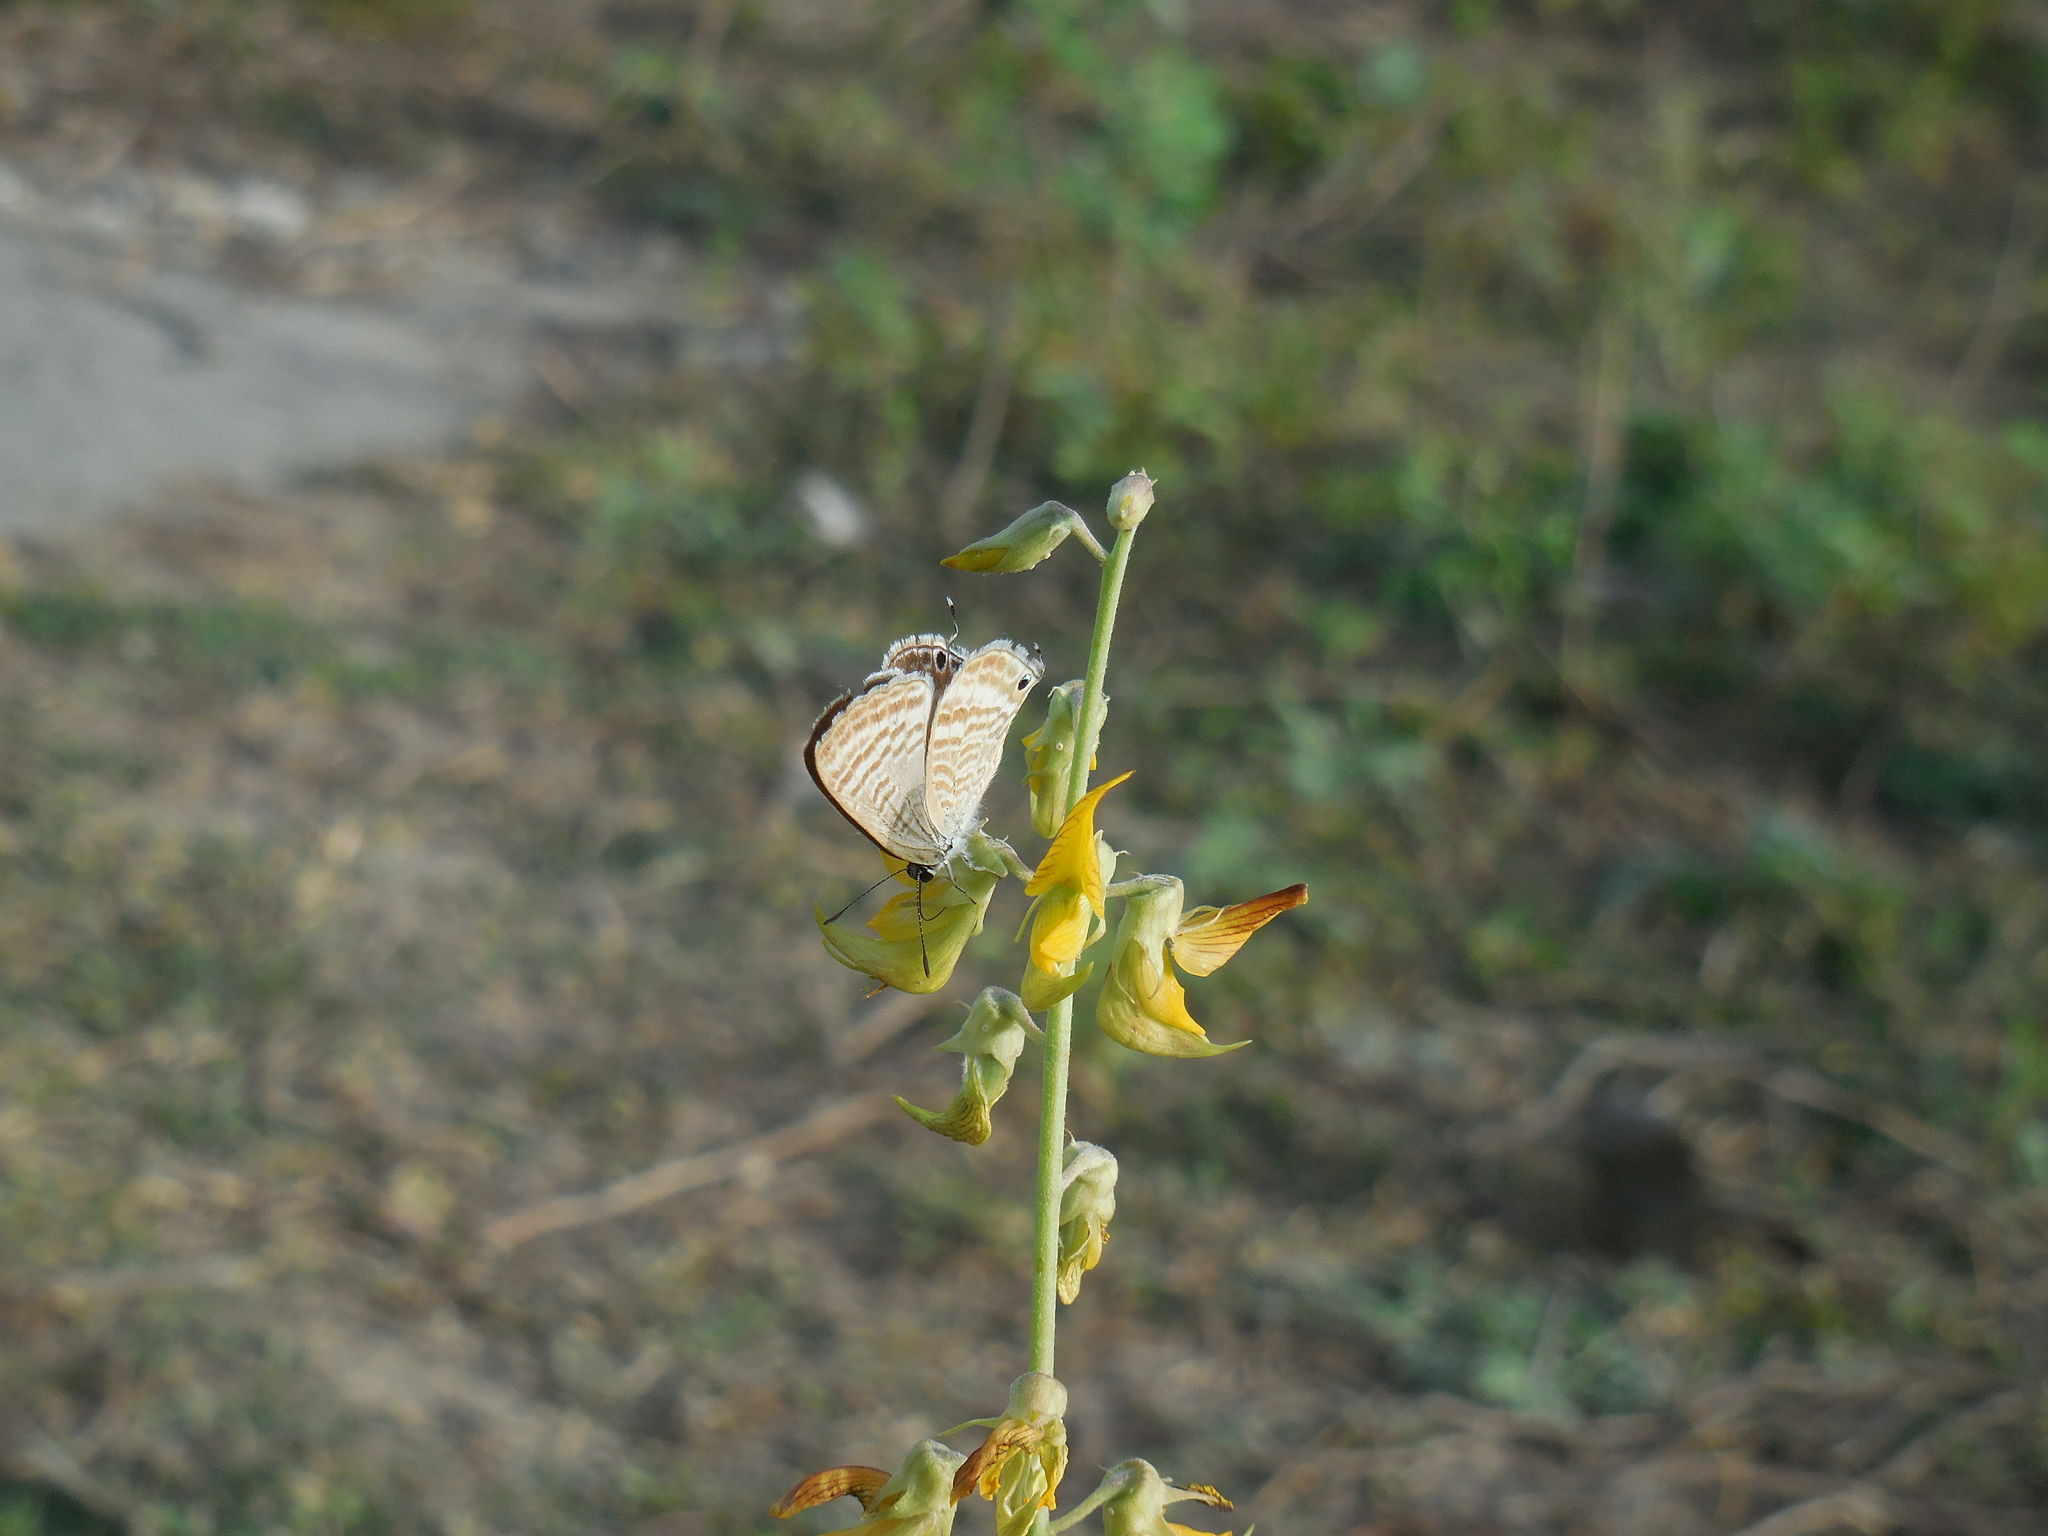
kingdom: Animalia
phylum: Arthropoda
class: Insecta
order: Lepidoptera
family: Lycaenidae
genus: Lampides
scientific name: Lampides boeticus
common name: Long-tailed blue
